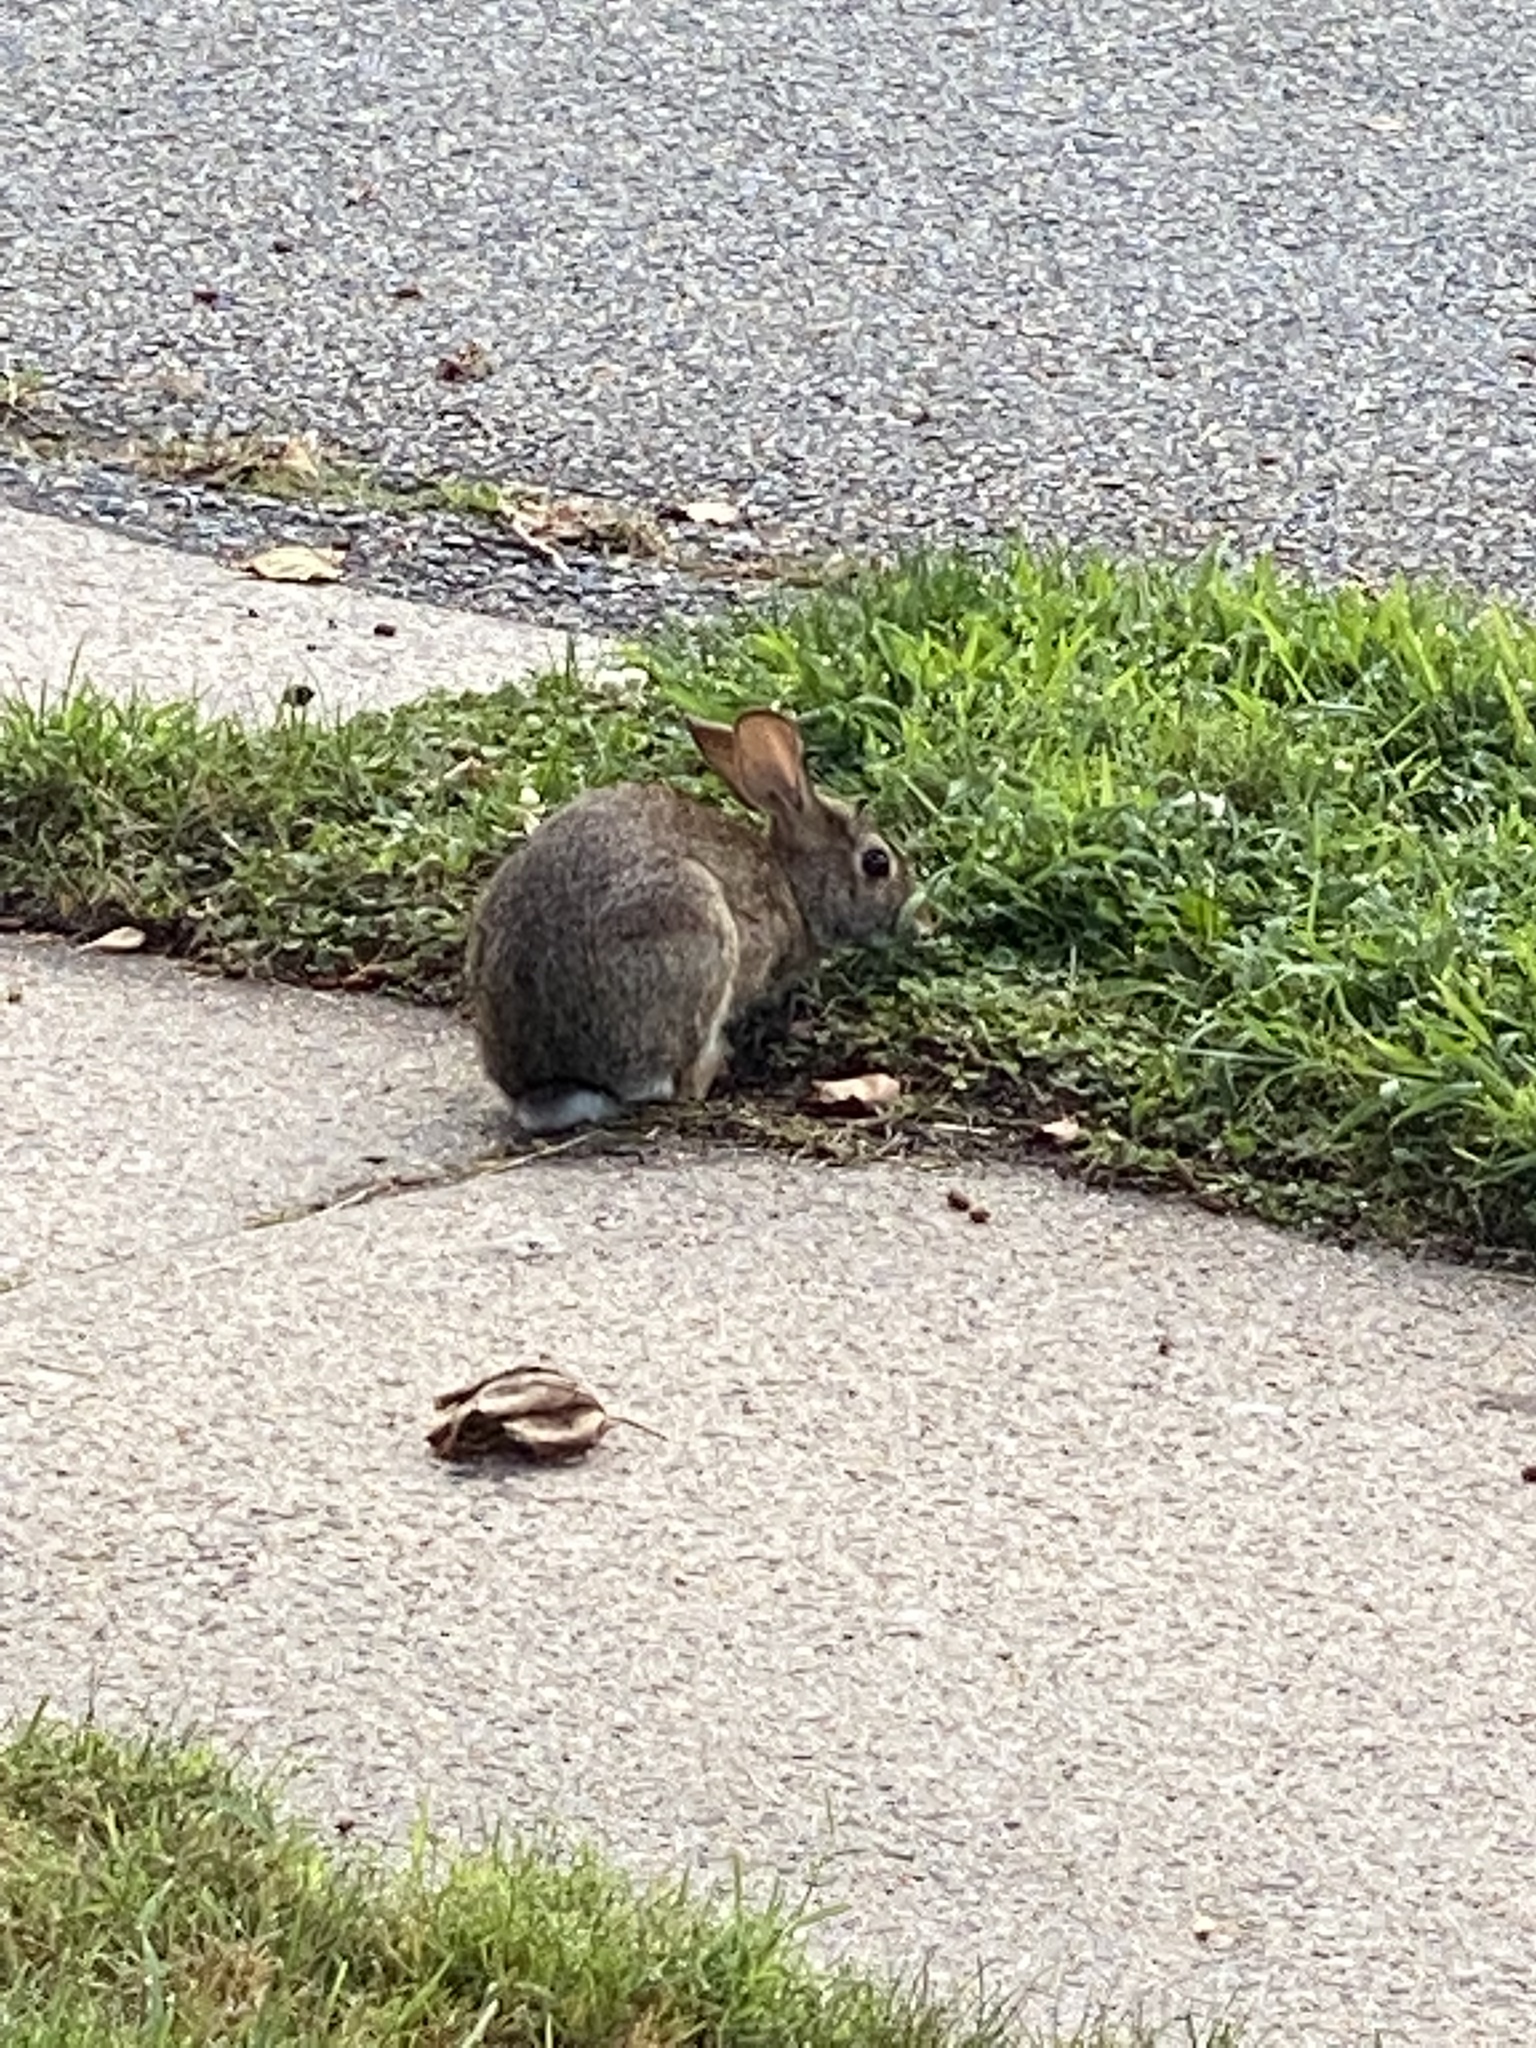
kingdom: Animalia
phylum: Chordata
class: Mammalia
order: Lagomorpha
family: Leporidae
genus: Sylvilagus
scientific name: Sylvilagus floridanus
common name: Eastern cottontail
